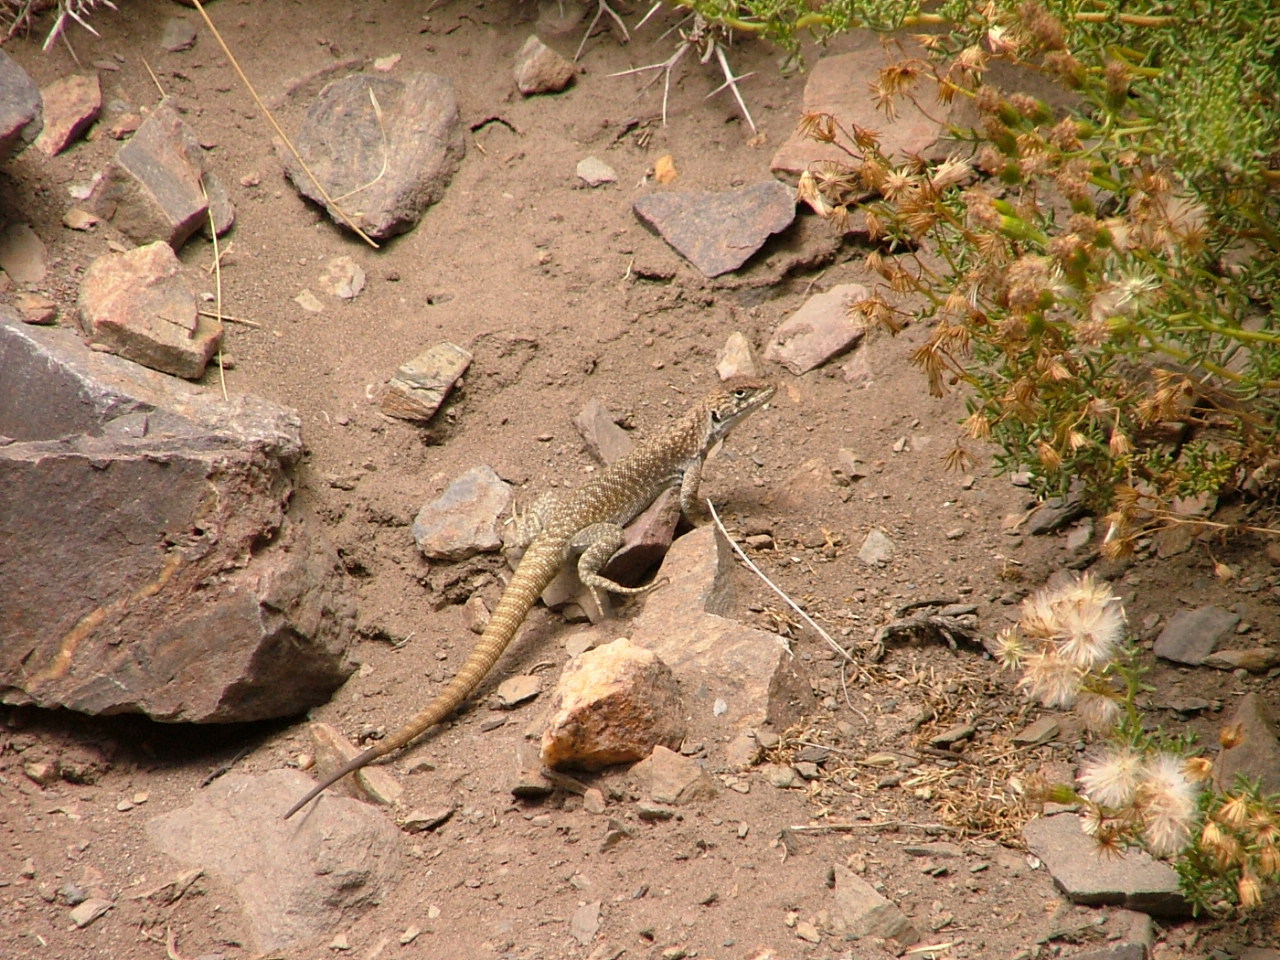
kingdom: Animalia
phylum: Chordata
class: Squamata
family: Liolaemidae
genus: Liolaemus
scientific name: Liolaemus austromendocinus
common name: Austromendocino tree iguana
